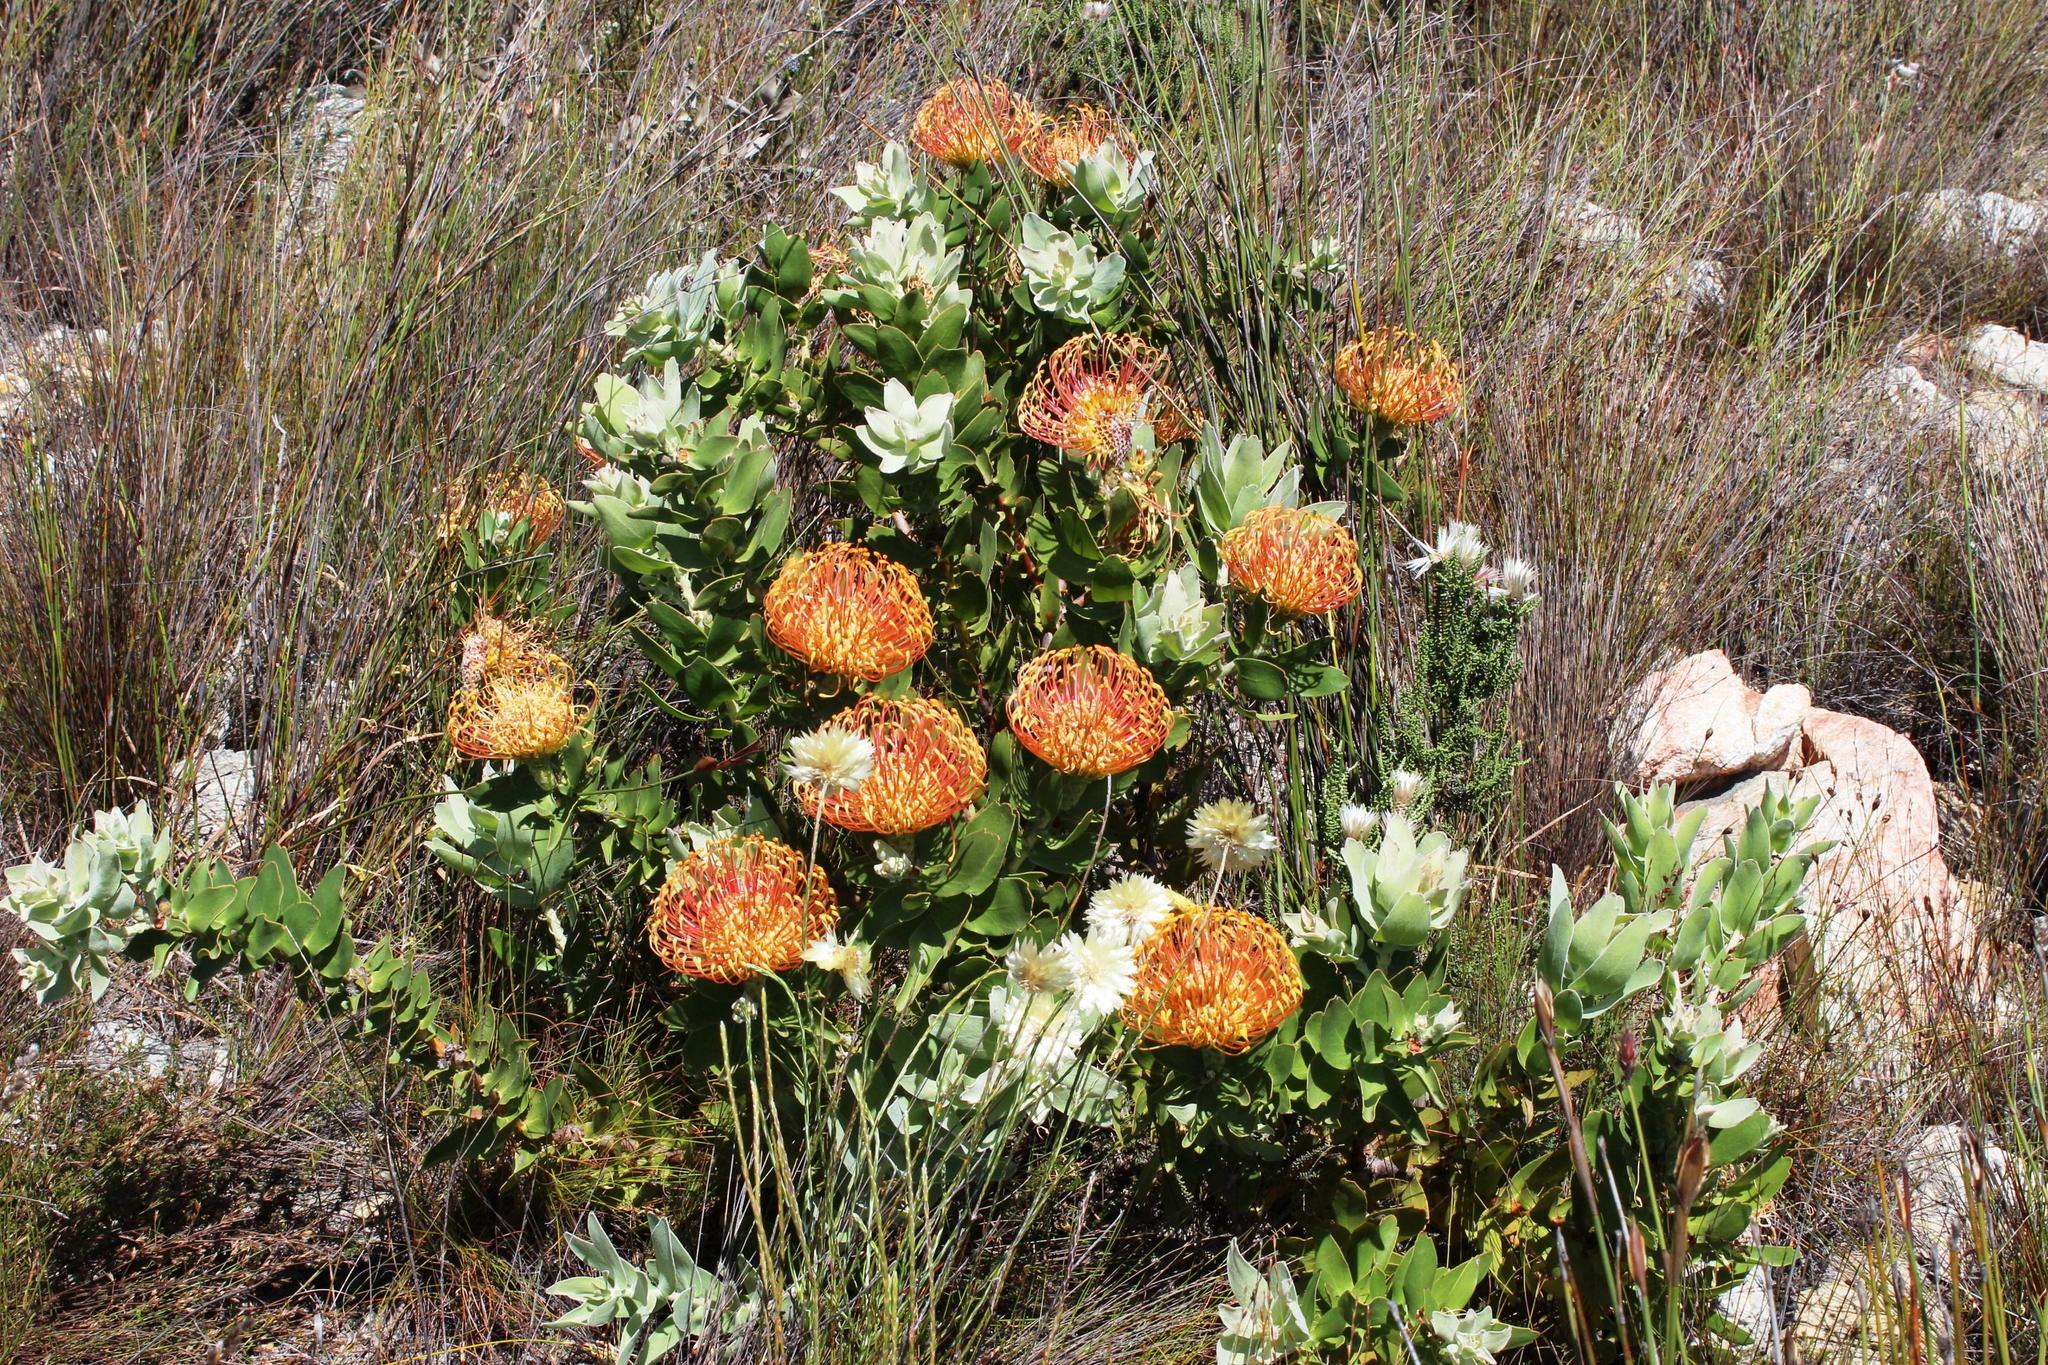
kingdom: Plantae
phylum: Tracheophyta
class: Magnoliopsida
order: Proteales
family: Proteaceae
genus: Leucospermum
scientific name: Leucospermum cordifolium
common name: Red pincushion-protea
